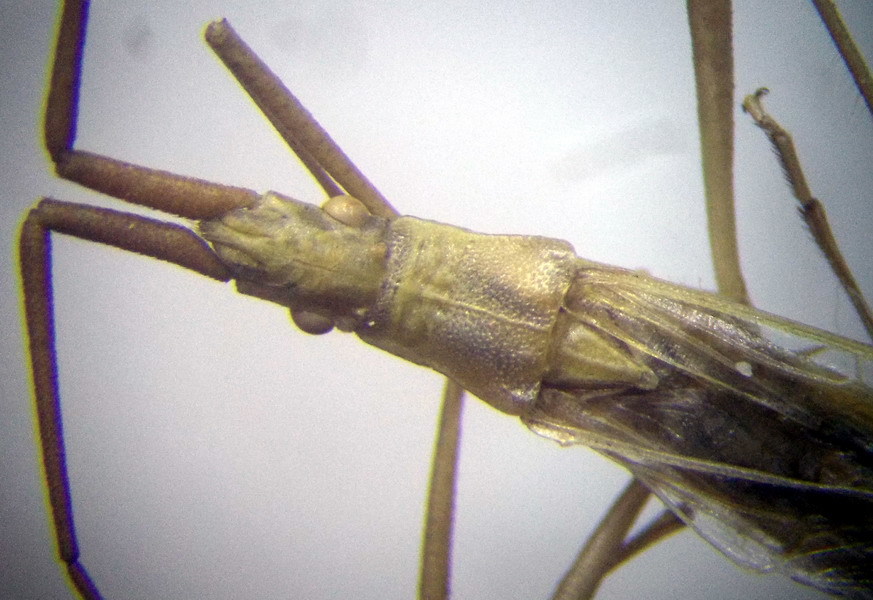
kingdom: Animalia
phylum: Arthropoda
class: Insecta
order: Hemiptera
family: Rhopalidae
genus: Chorosoma
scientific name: Chorosoma schillingii
